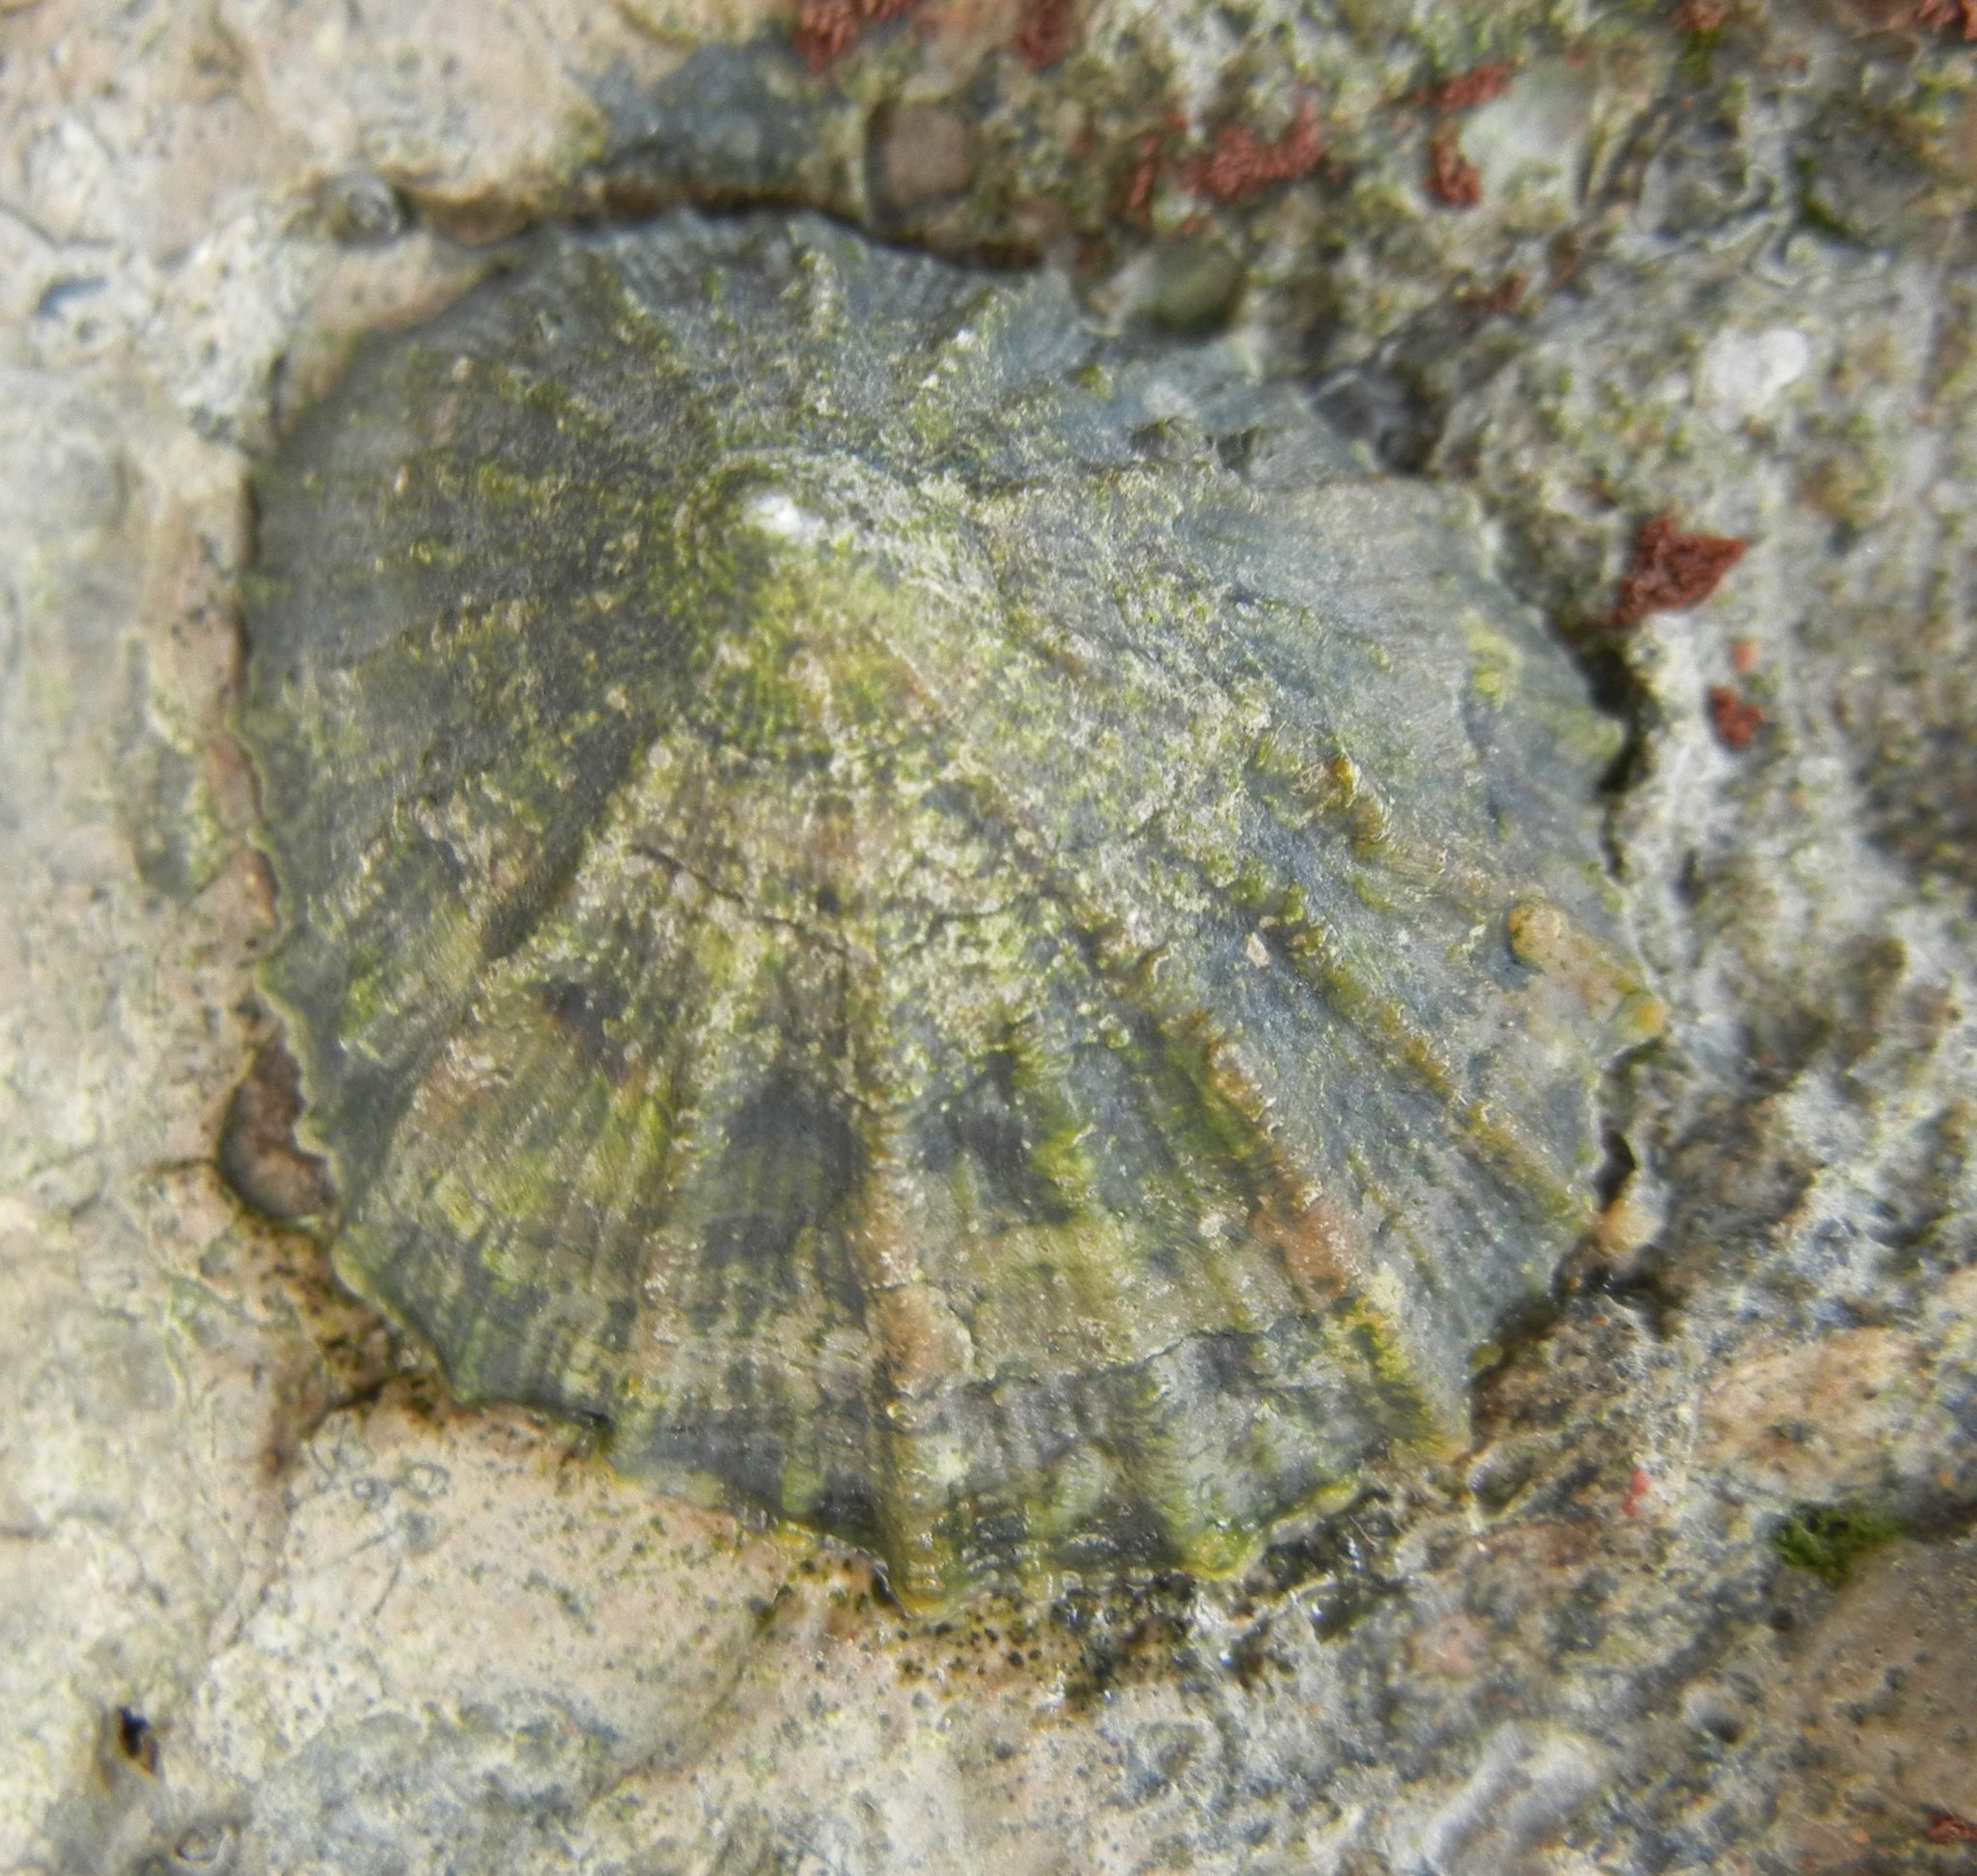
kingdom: Animalia
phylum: Mollusca
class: Gastropoda
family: Patellidae
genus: Patella
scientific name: Patella
